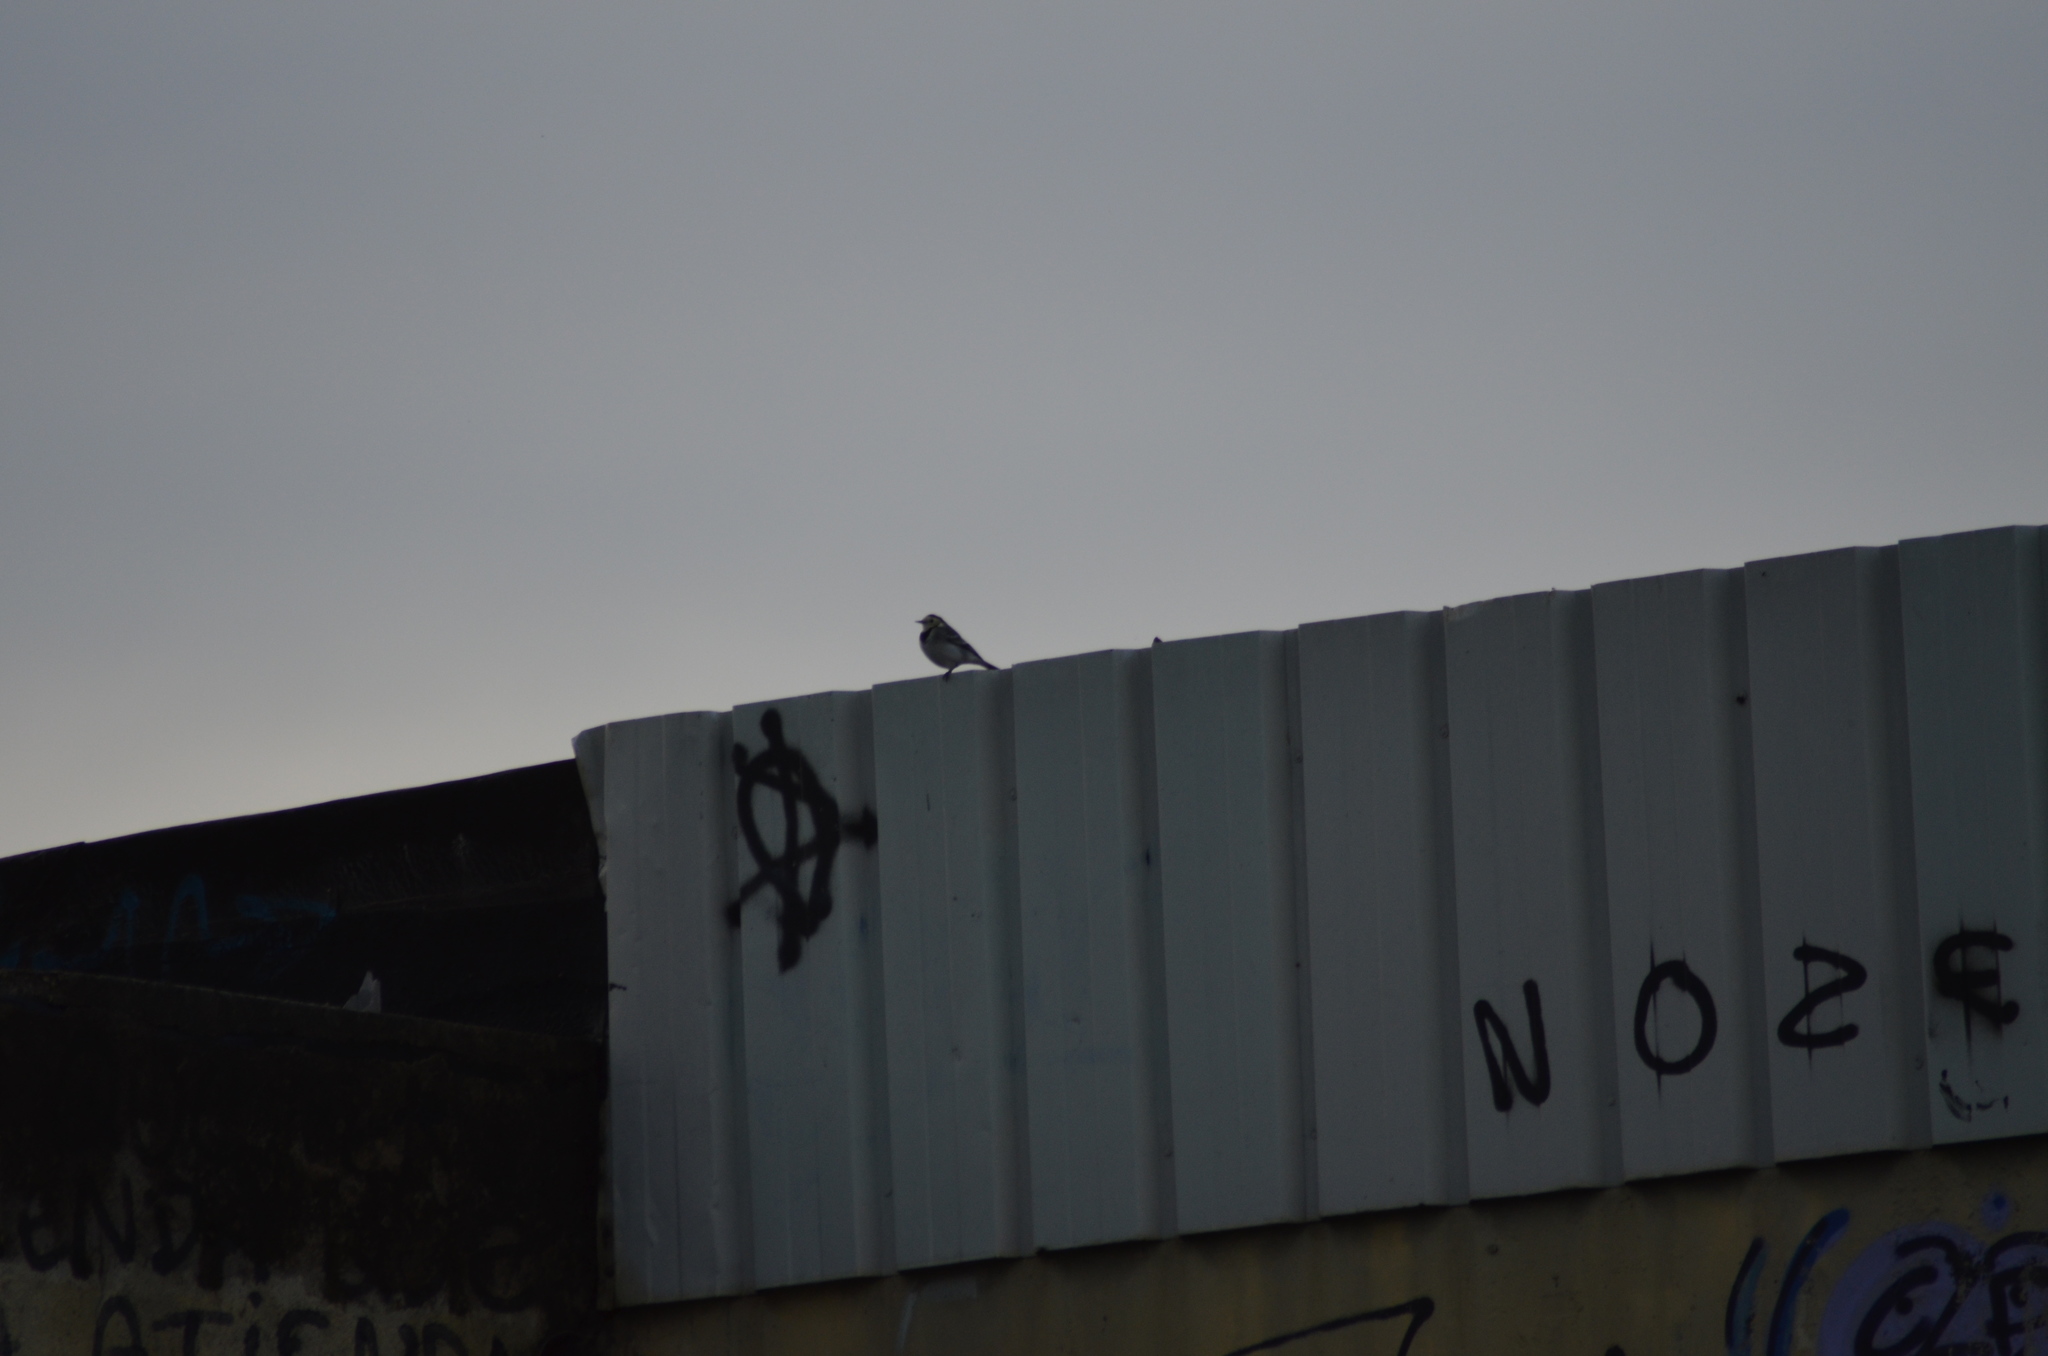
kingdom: Animalia
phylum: Chordata
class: Aves
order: Passeriformes
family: Motacillidae
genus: Motacilla
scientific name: Motacilla alba
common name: White wagtail
